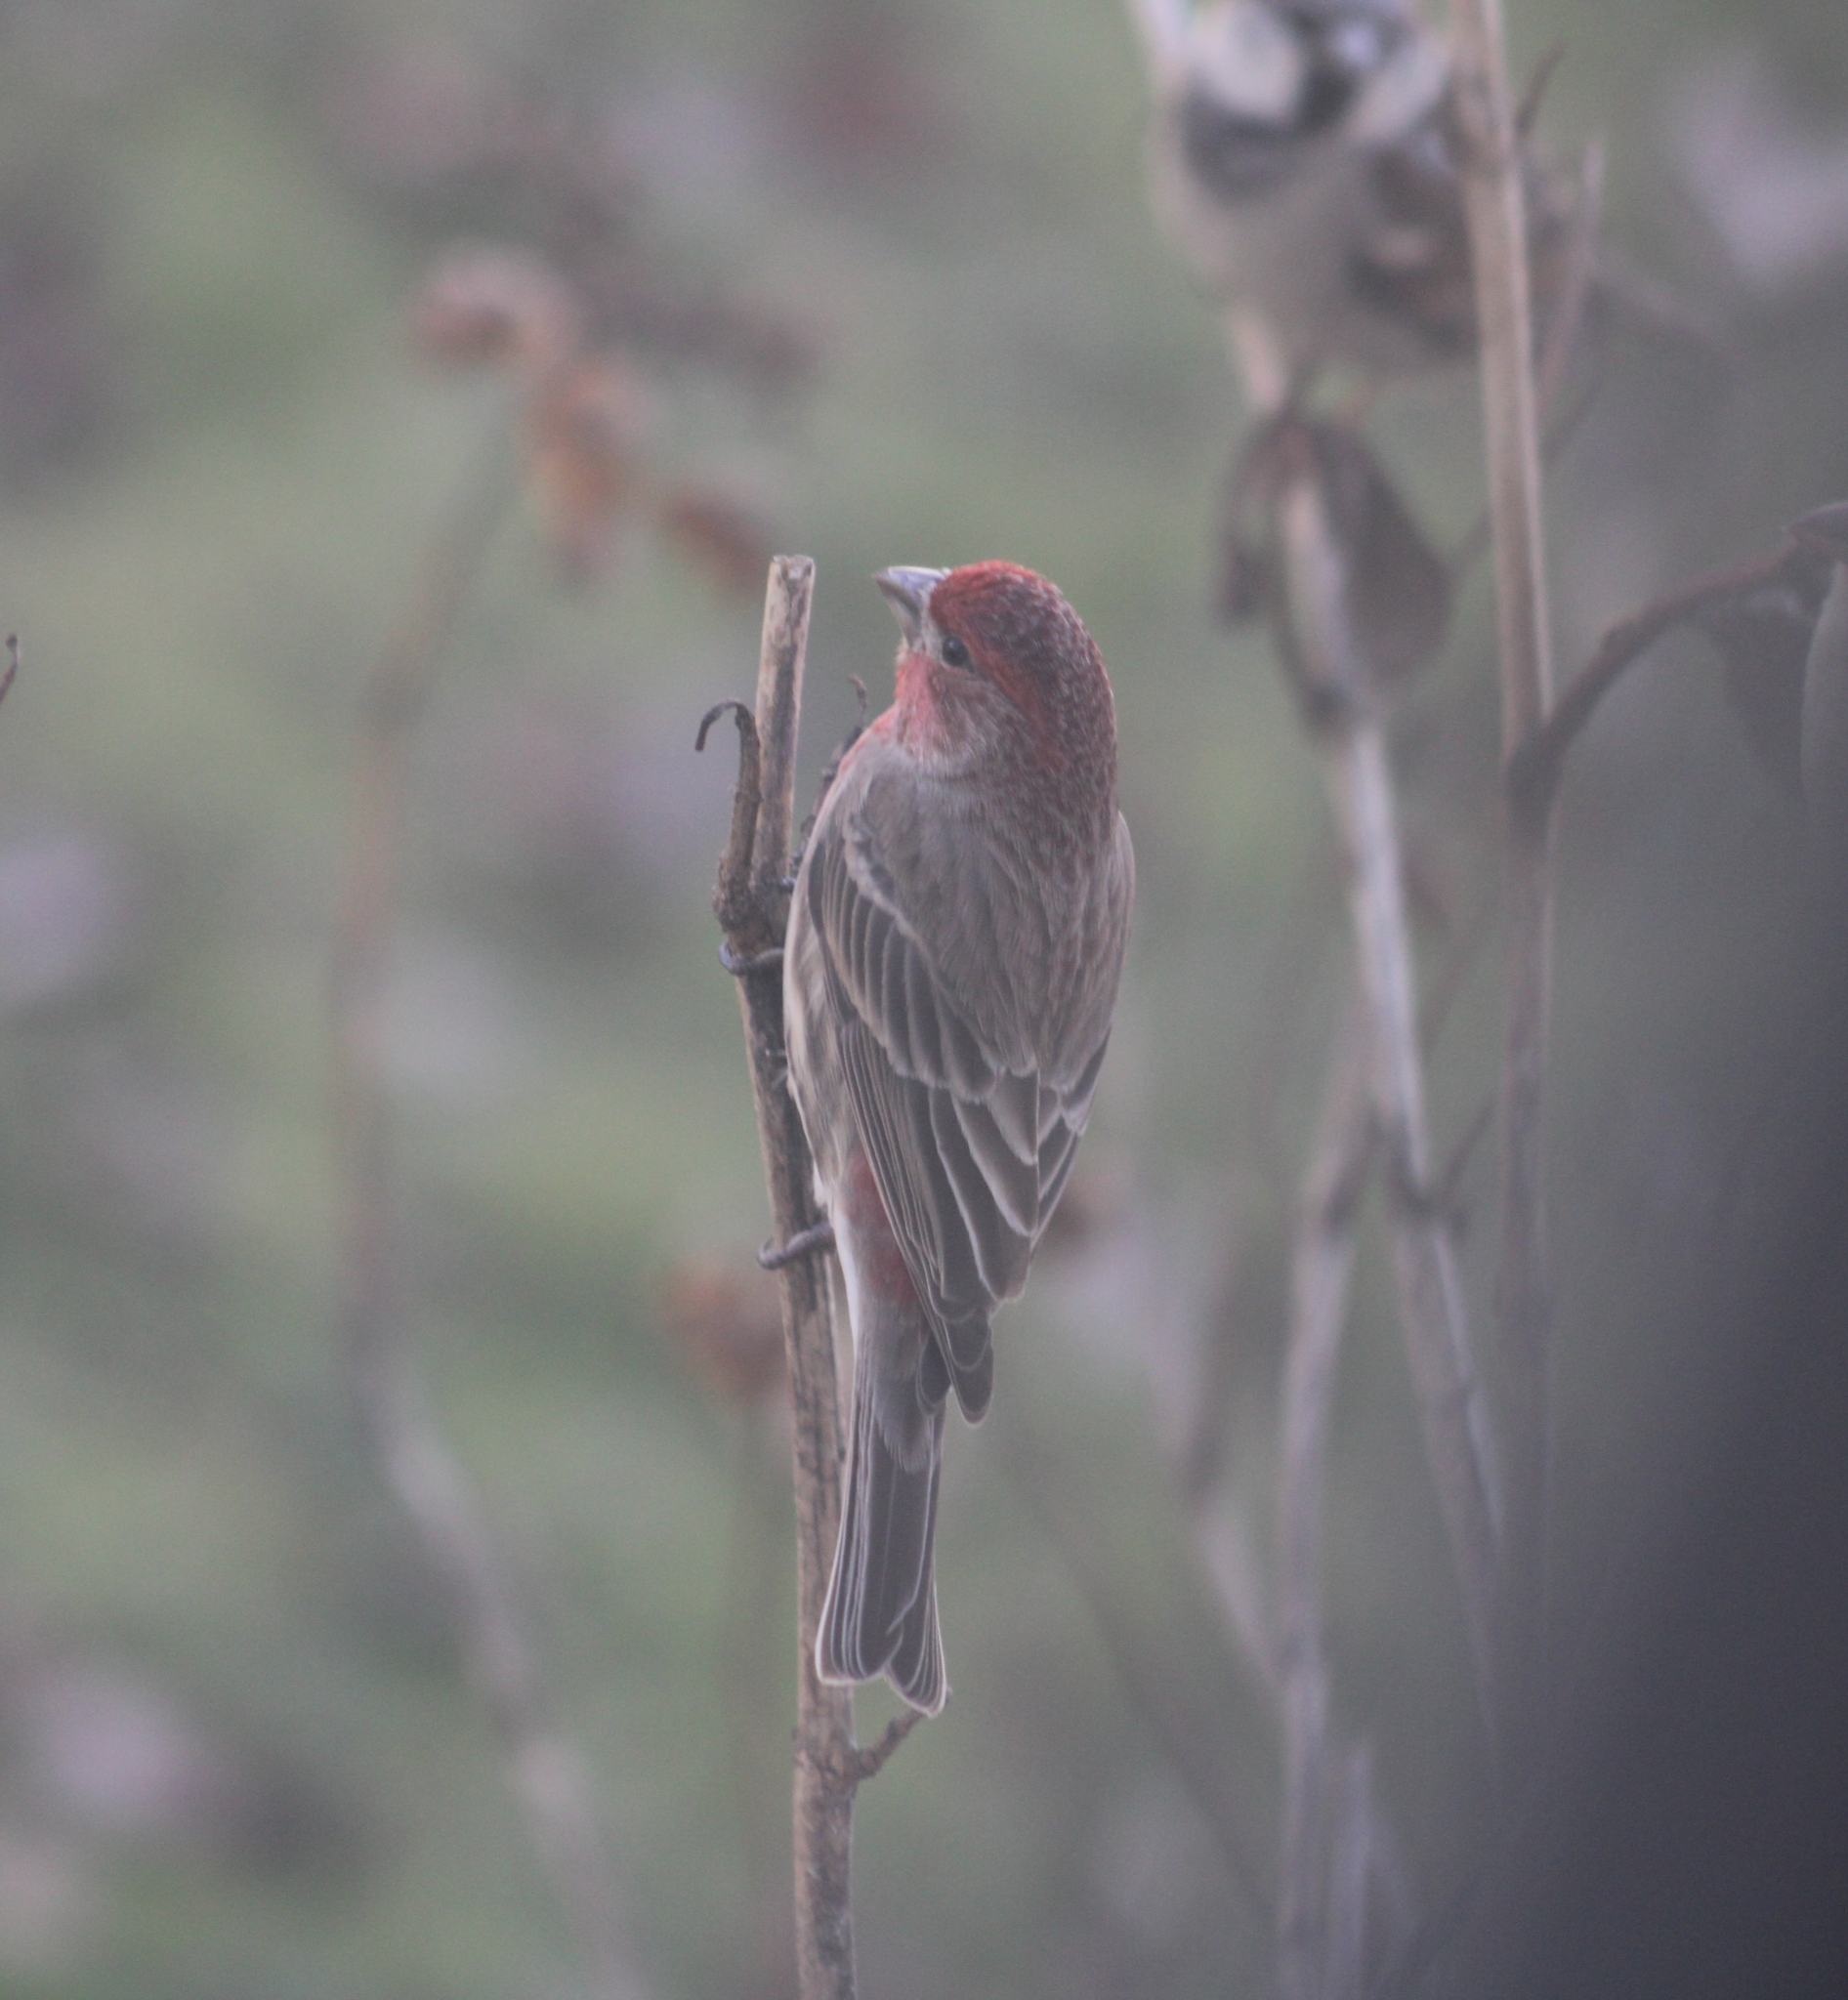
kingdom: Animalia
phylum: Chordata
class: Aves
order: Passeriformes
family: Fringillidae
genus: Haemorhous
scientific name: Haemorhous mexicanus
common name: House finch
